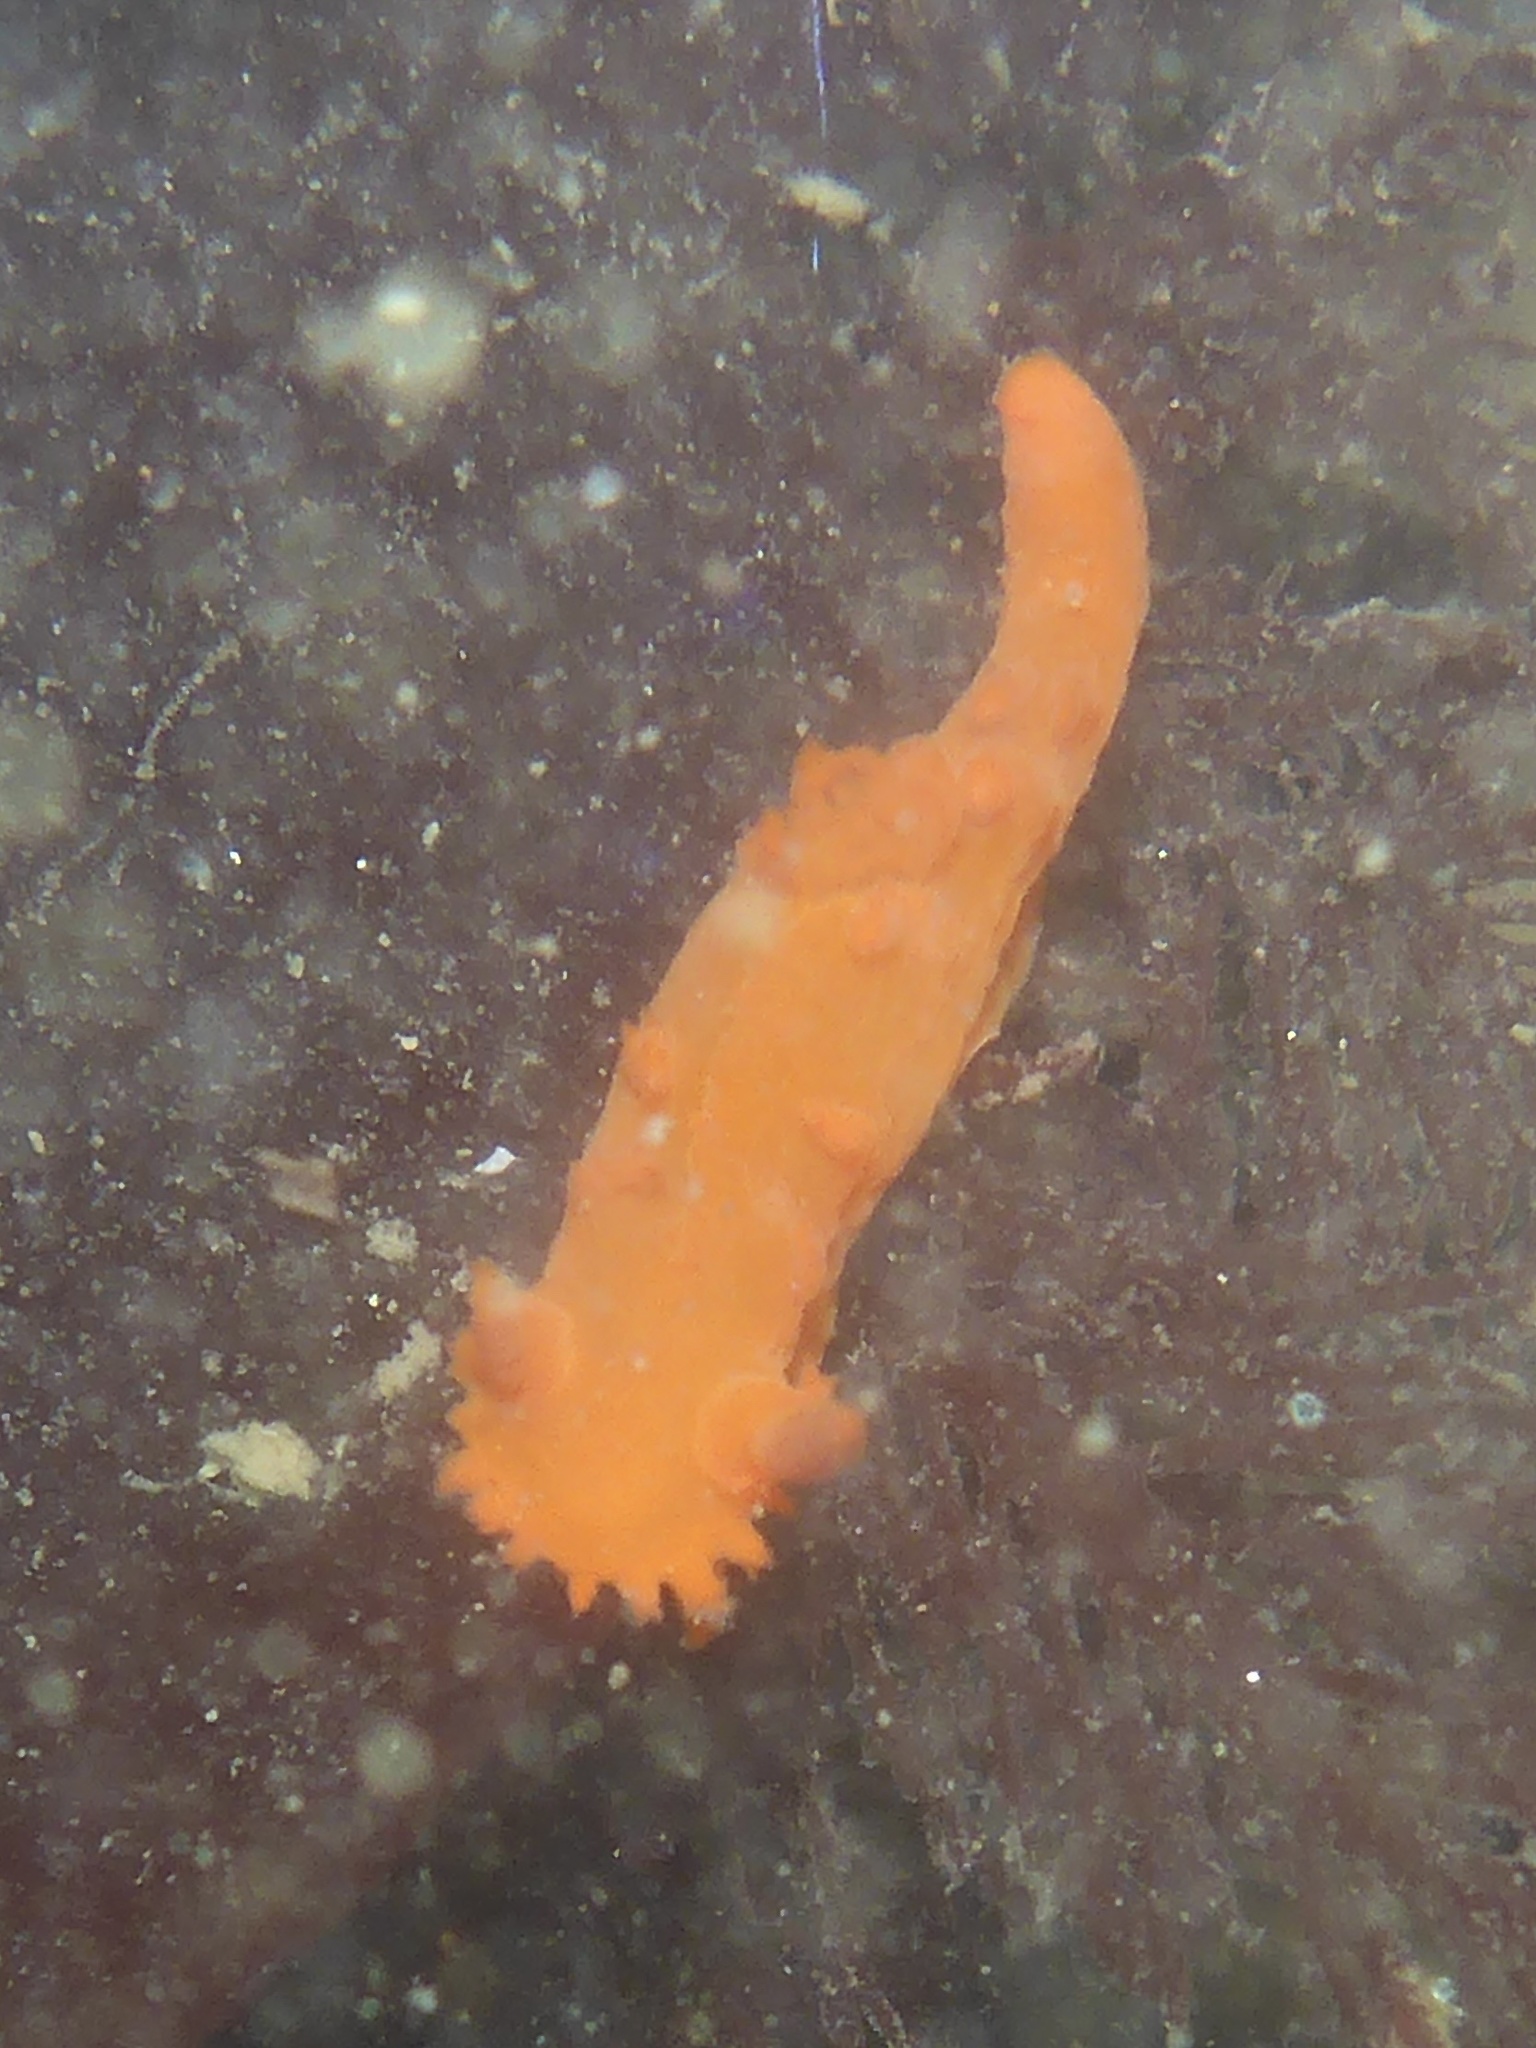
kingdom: Animalia
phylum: Mollusca
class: Gastropoda
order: Nudibranchia
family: Polyceridae
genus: Triopha
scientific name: Triopha maculata
